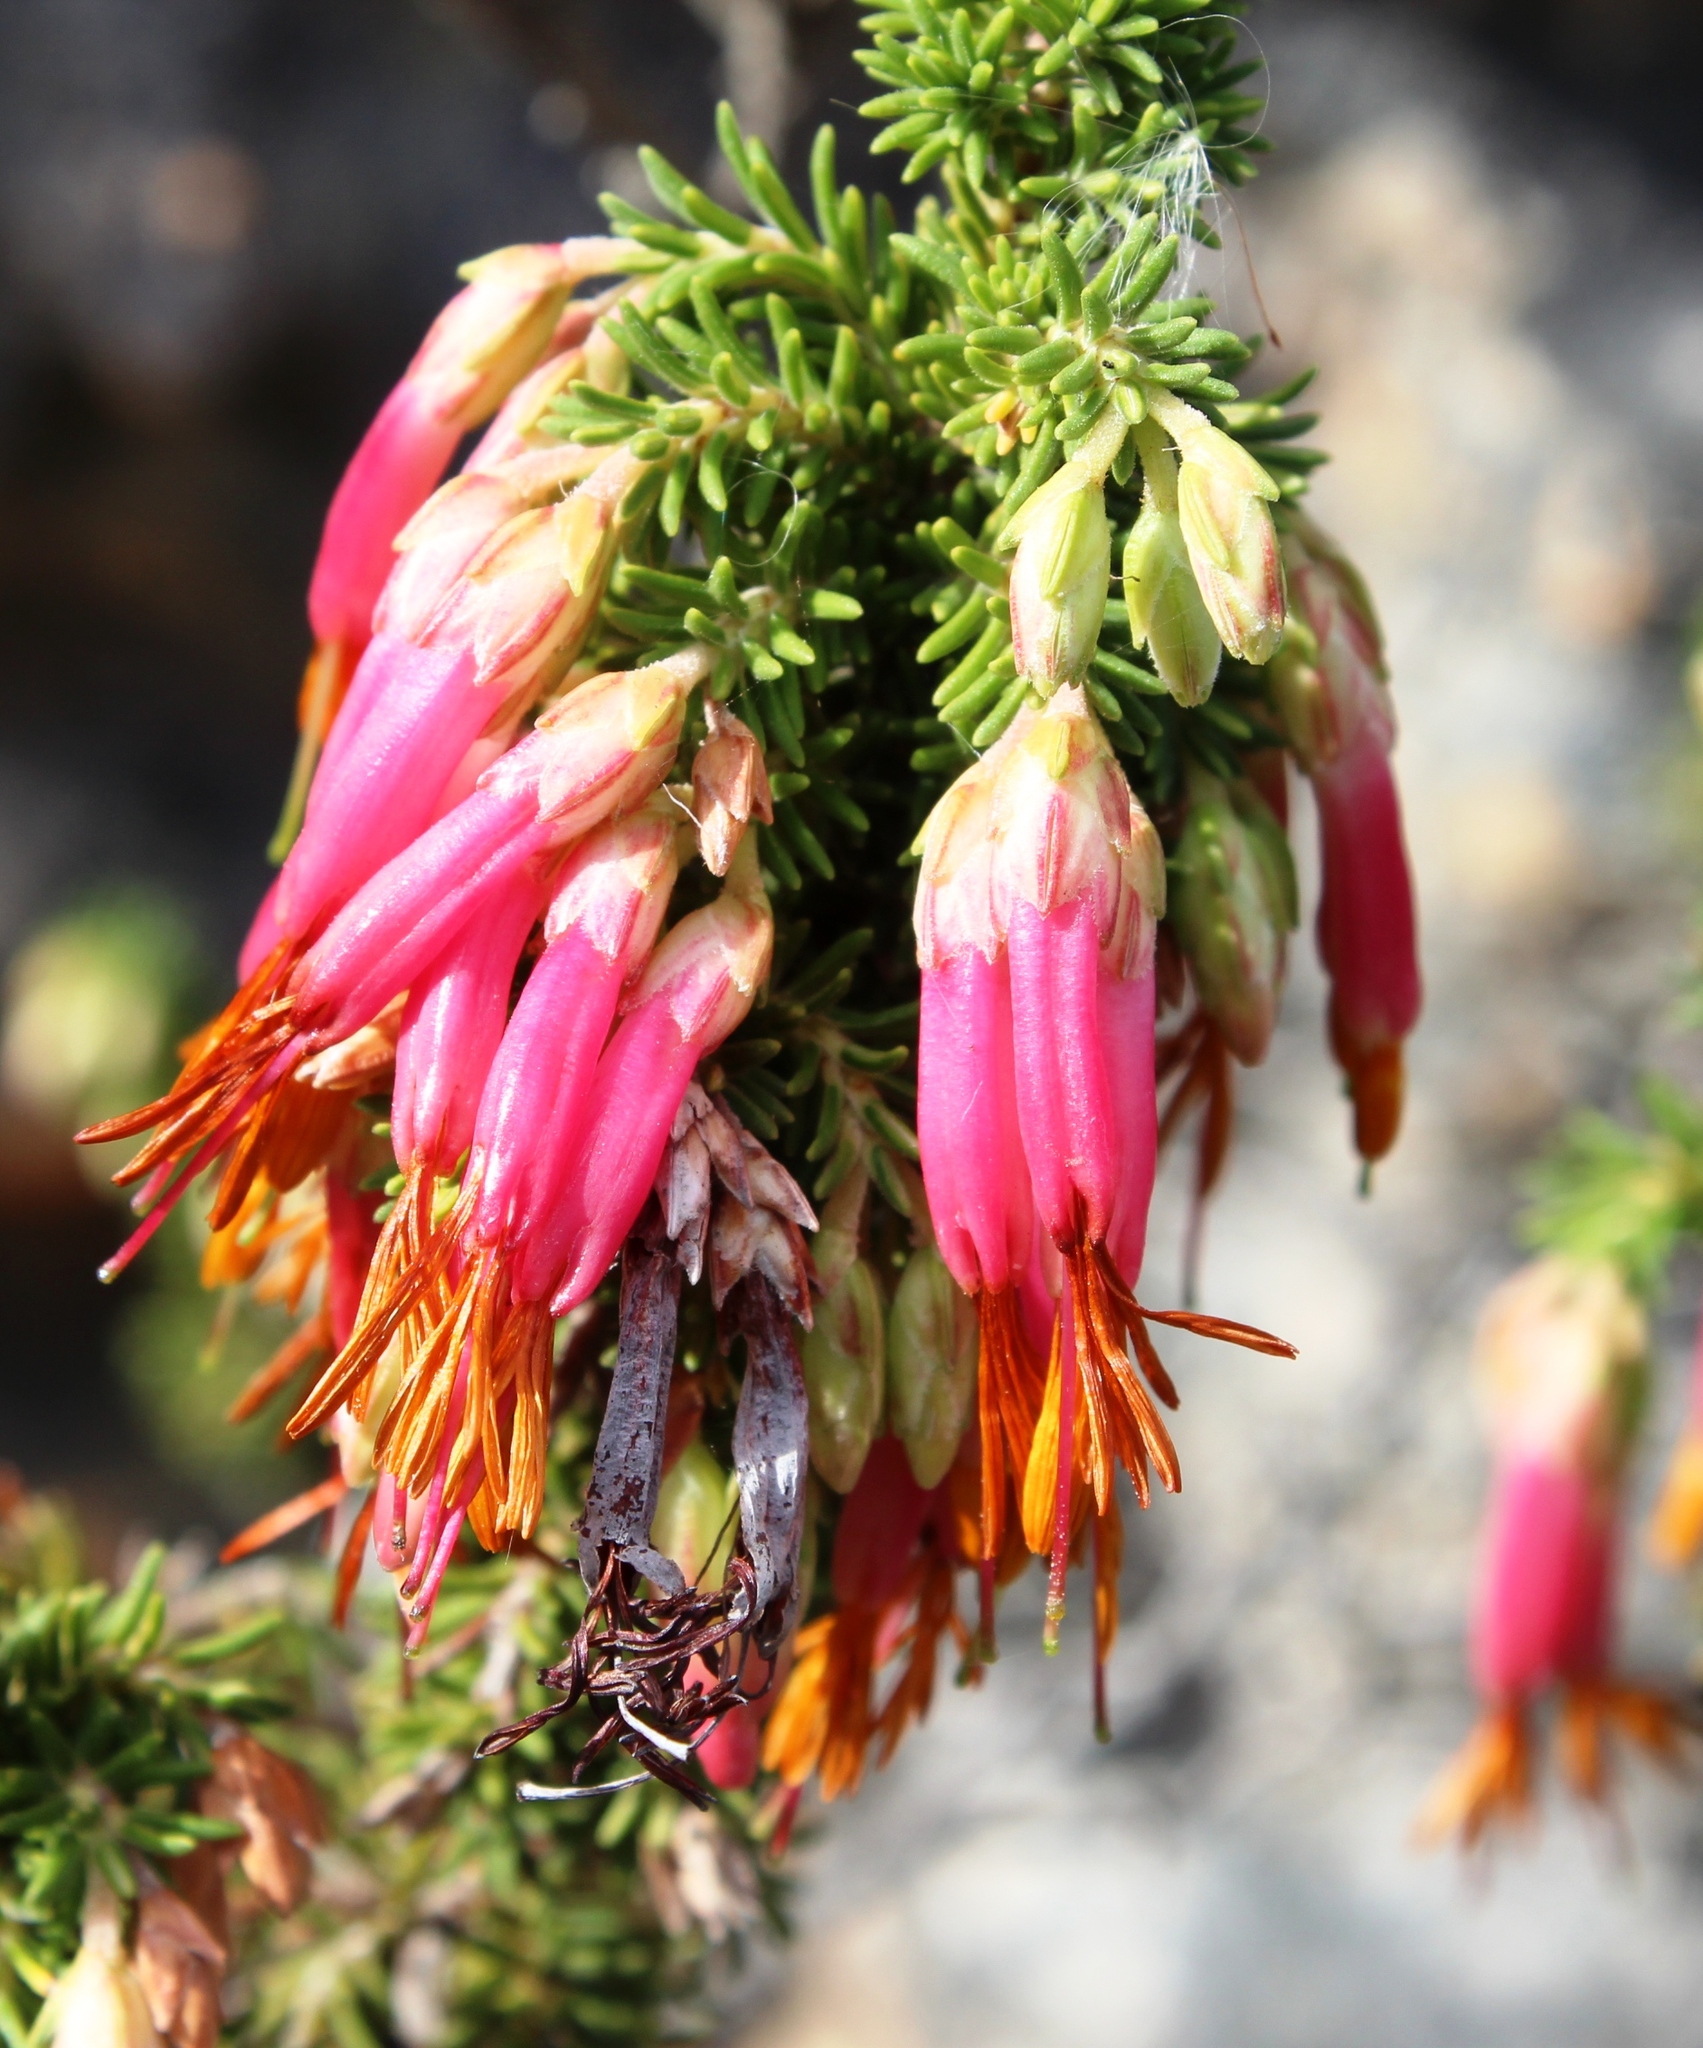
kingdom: Plantae
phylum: Tracheophyta
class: Magnoliopsida
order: Ericales
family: Ericaceae
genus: Erica
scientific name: Erica coccinea
